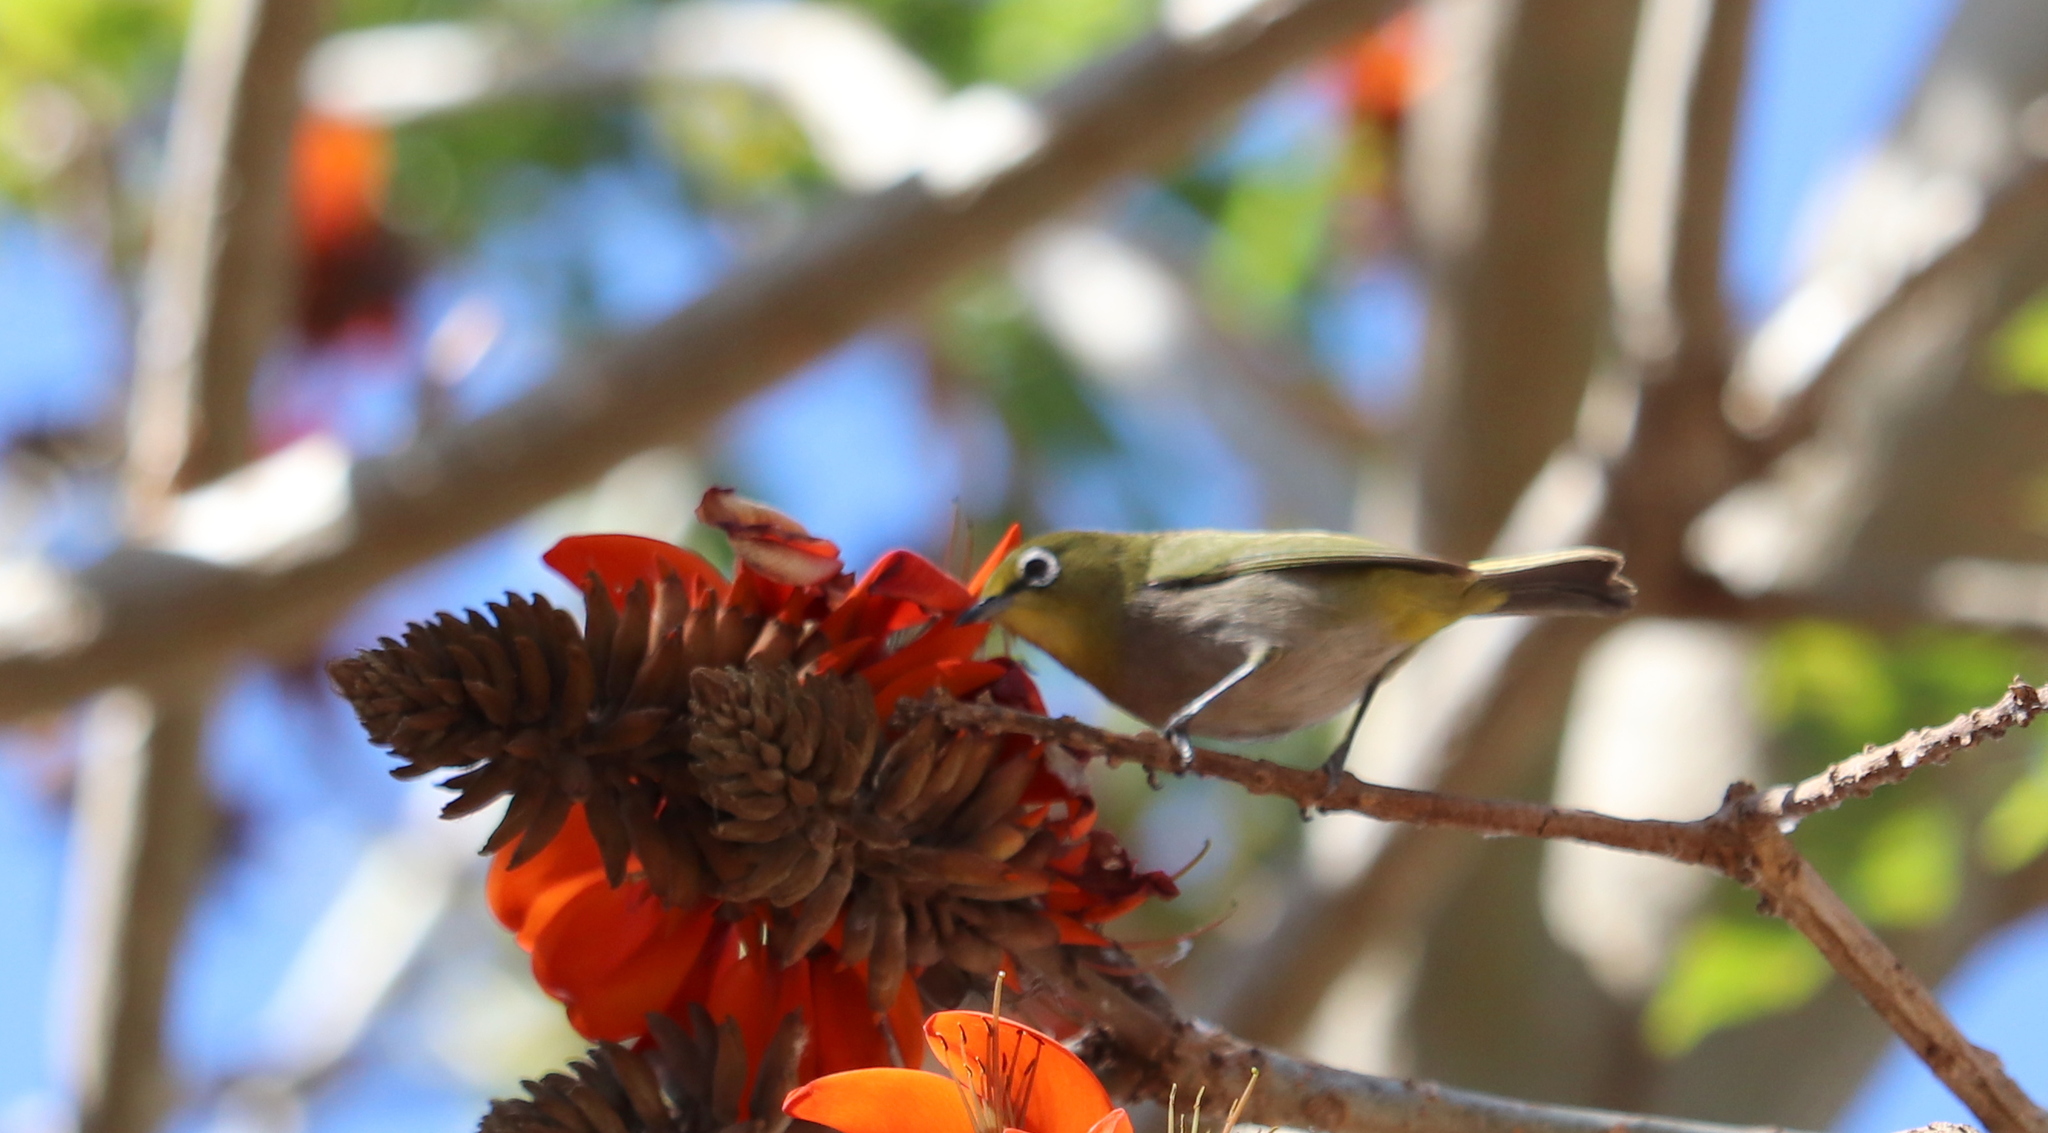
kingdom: Animalia
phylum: Chordata
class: Aves
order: Passeriformes
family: Zosteropidae
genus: Zosterops
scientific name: Zosterops virens
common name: Cape white-eye
